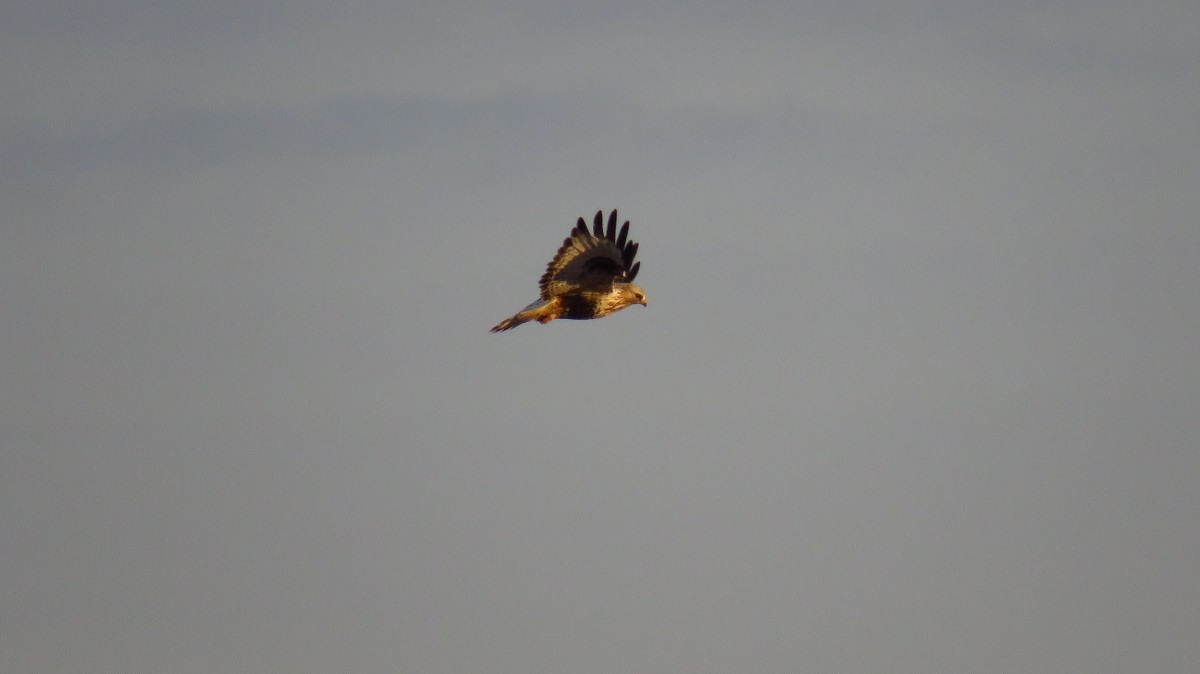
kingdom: Animalia
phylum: Chordata
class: Aves
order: Accipitriformes
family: Accipitridae
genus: Buteo
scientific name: Buteo lagopus
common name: Rough-legged buzzard
